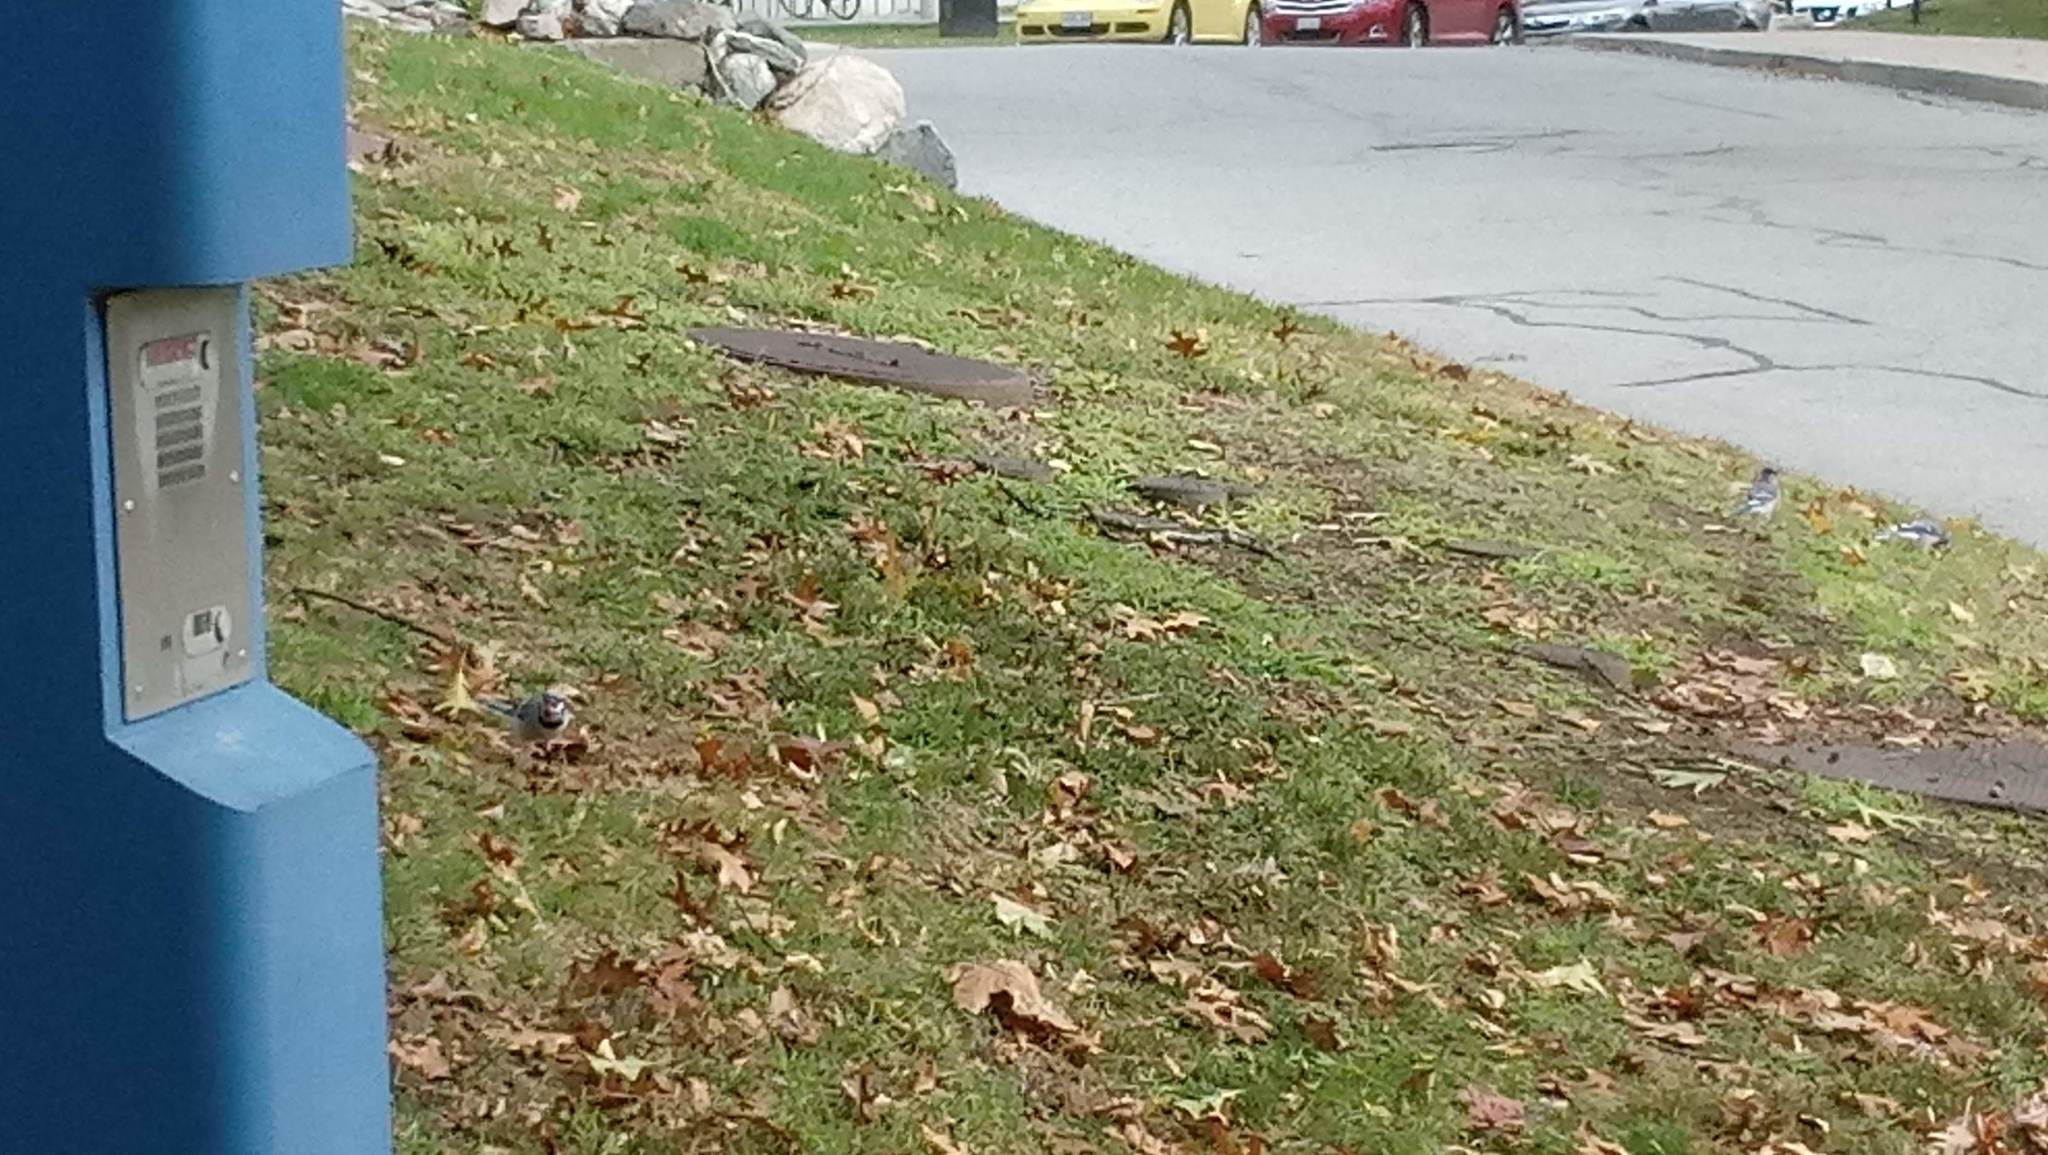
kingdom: Animalia
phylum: Chordata
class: Aves
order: Passeriformes
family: Corvidae
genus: Cyanocitta
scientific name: Cyanocitta cristata
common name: Blue jay
